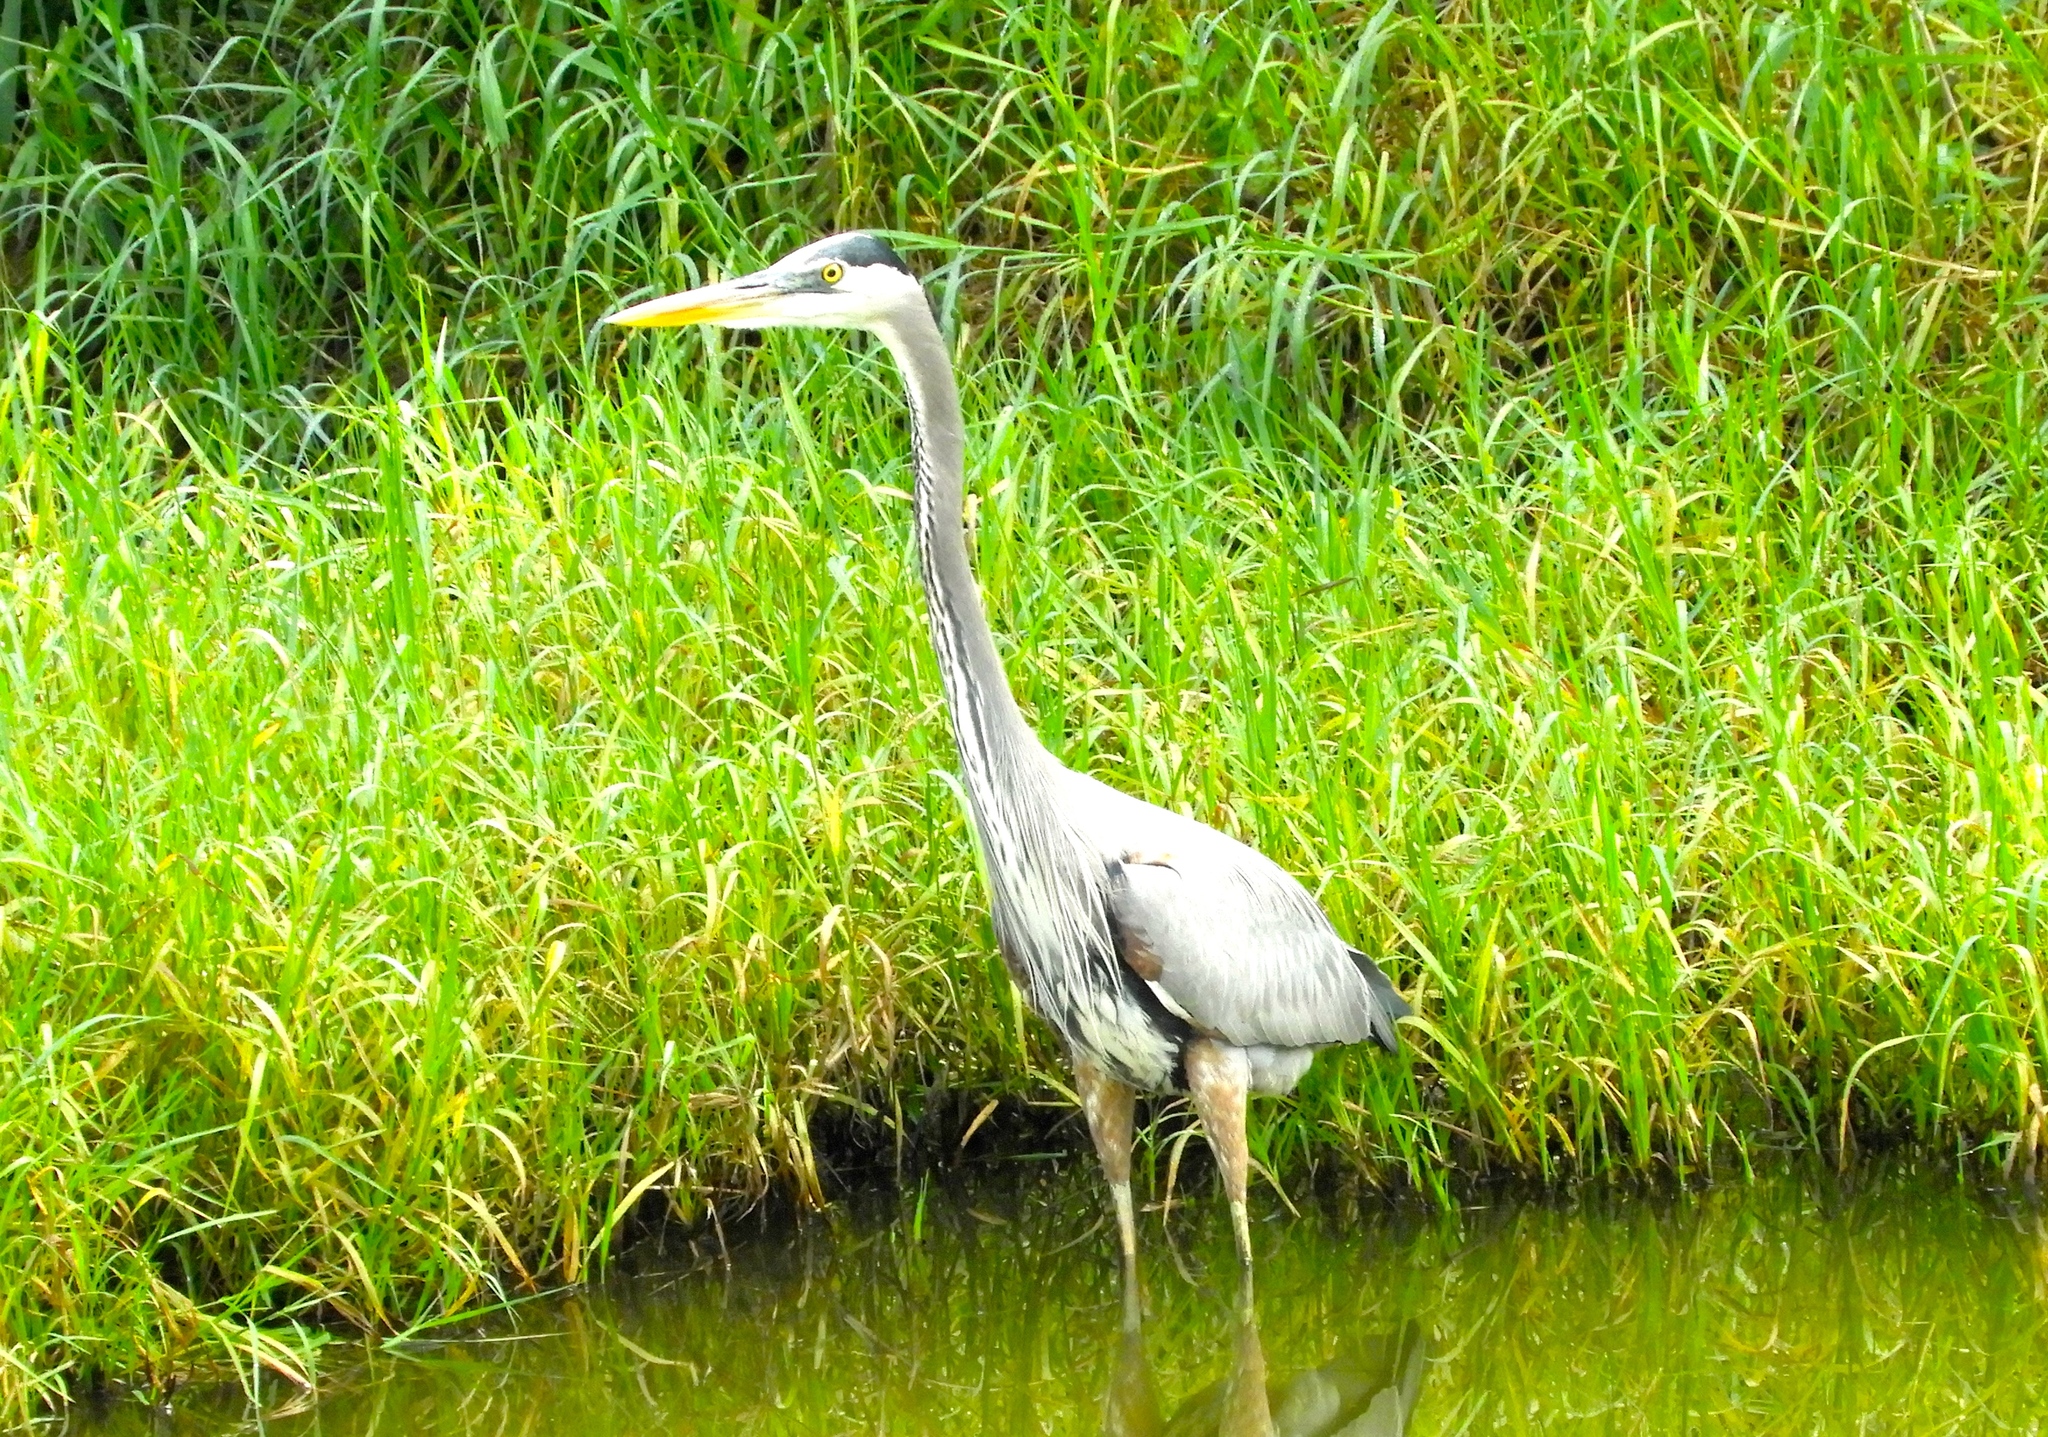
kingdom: Animalia
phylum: Chordata
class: Aves
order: Pelecaniformes
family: Ardeidae
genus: Ardea
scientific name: Ardea herodias
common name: Great blue heron
